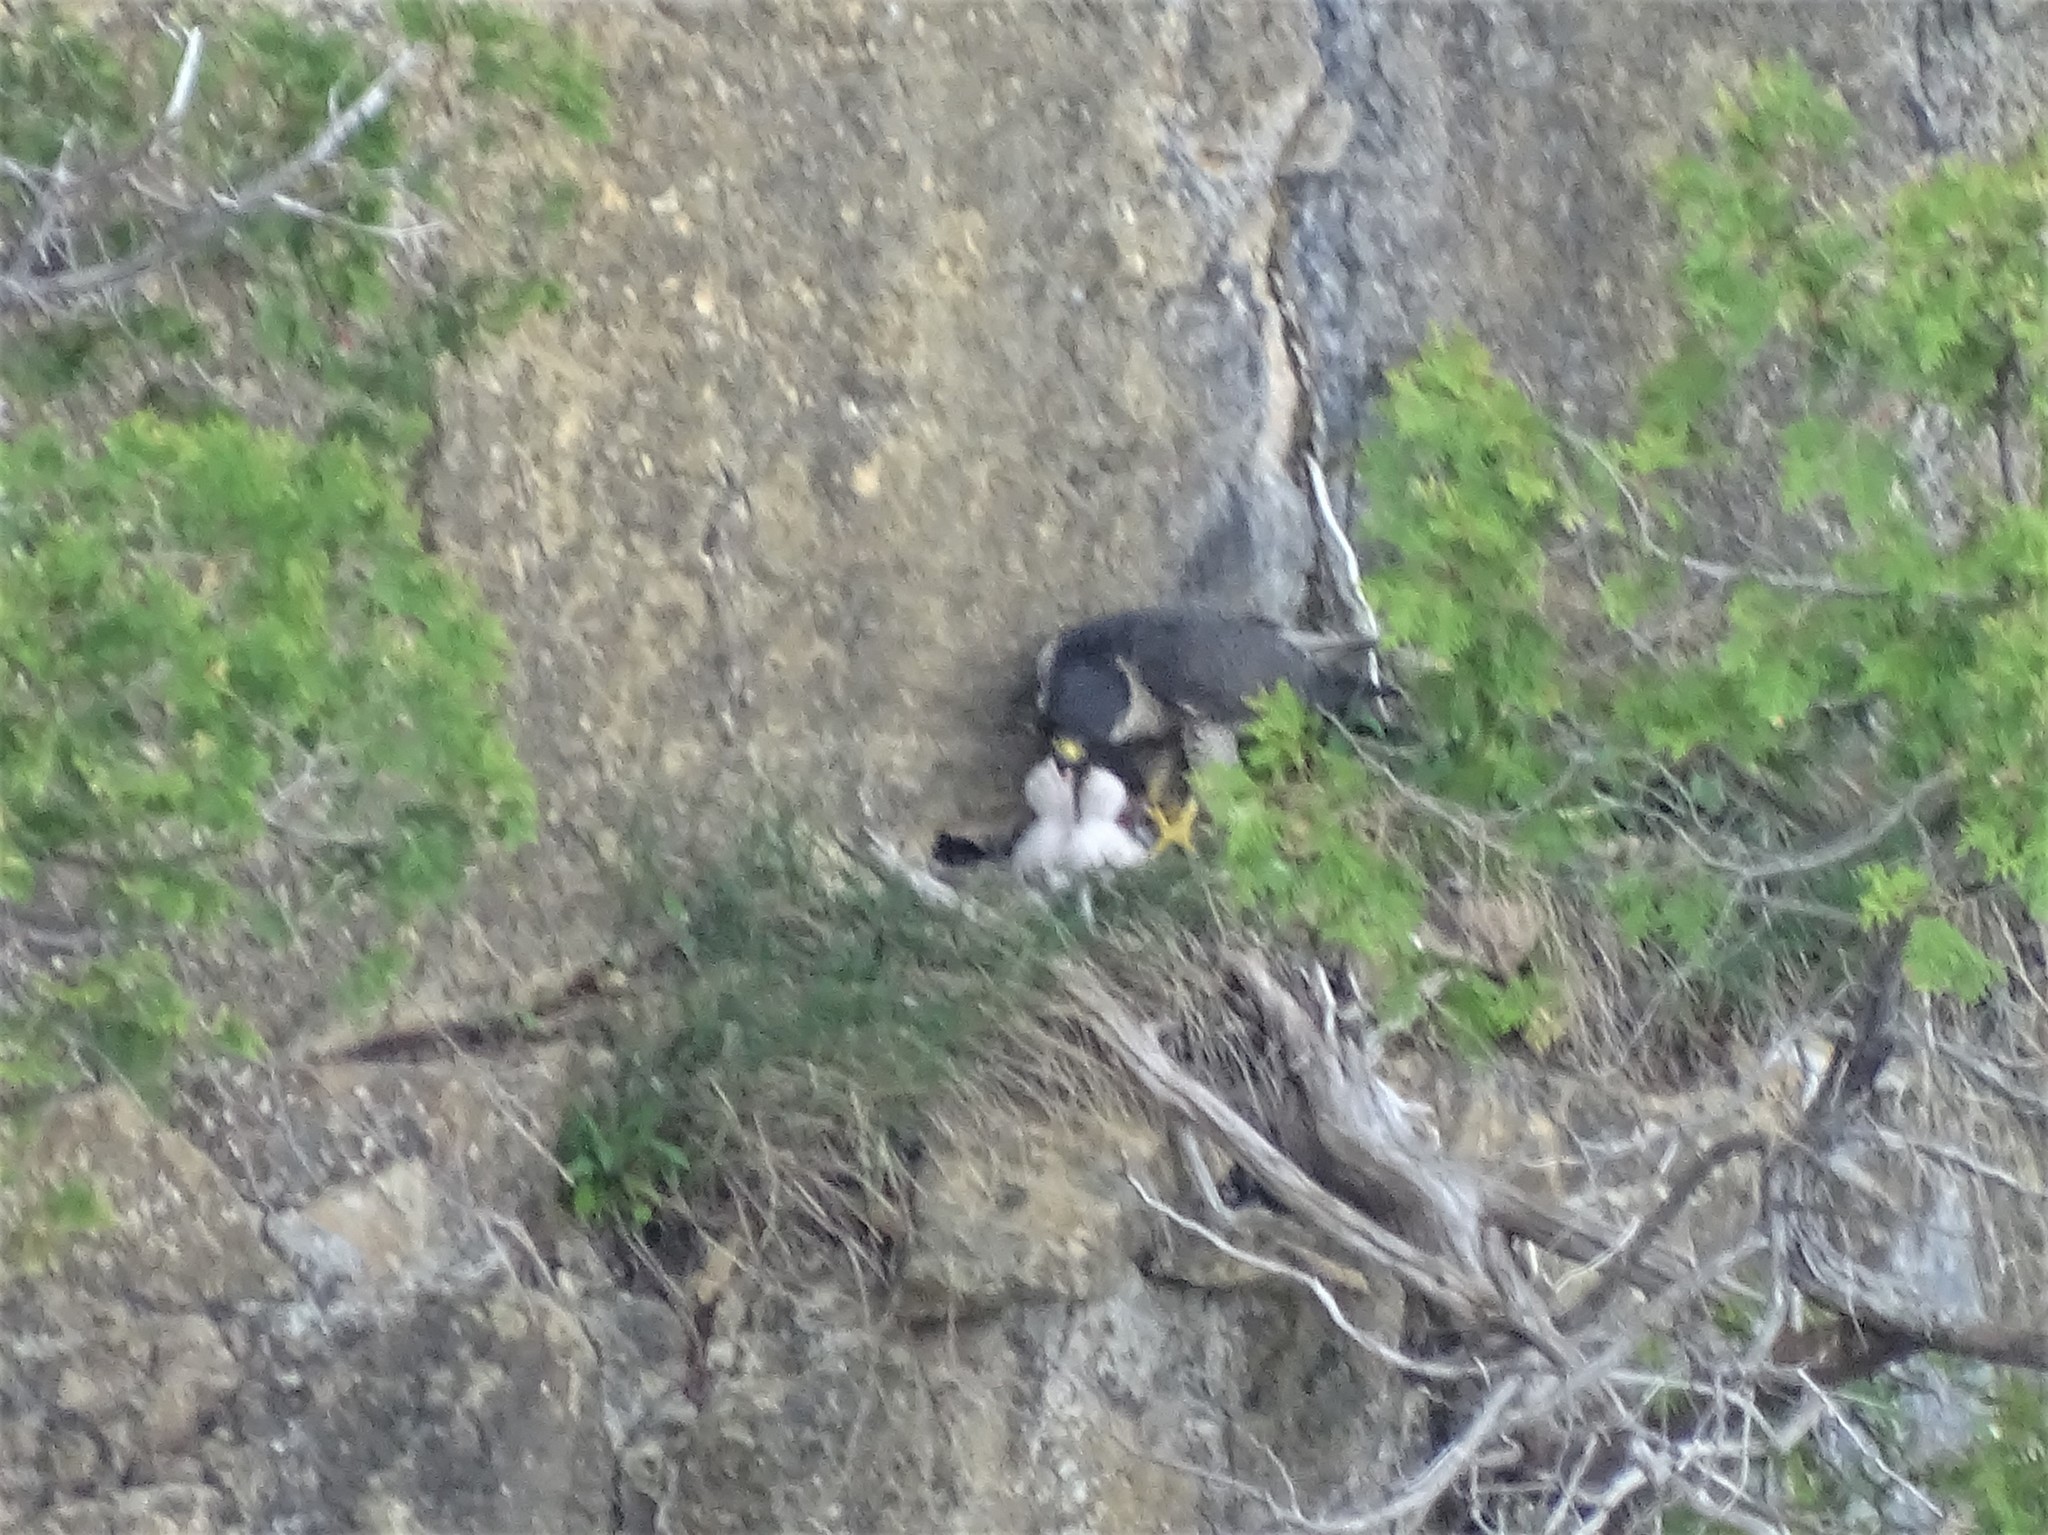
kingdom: Animalia
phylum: Chordata
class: Aves
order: Falconiformes
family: Falconidae
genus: Falco
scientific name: Falco peregrinus
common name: Peregrine falcon
